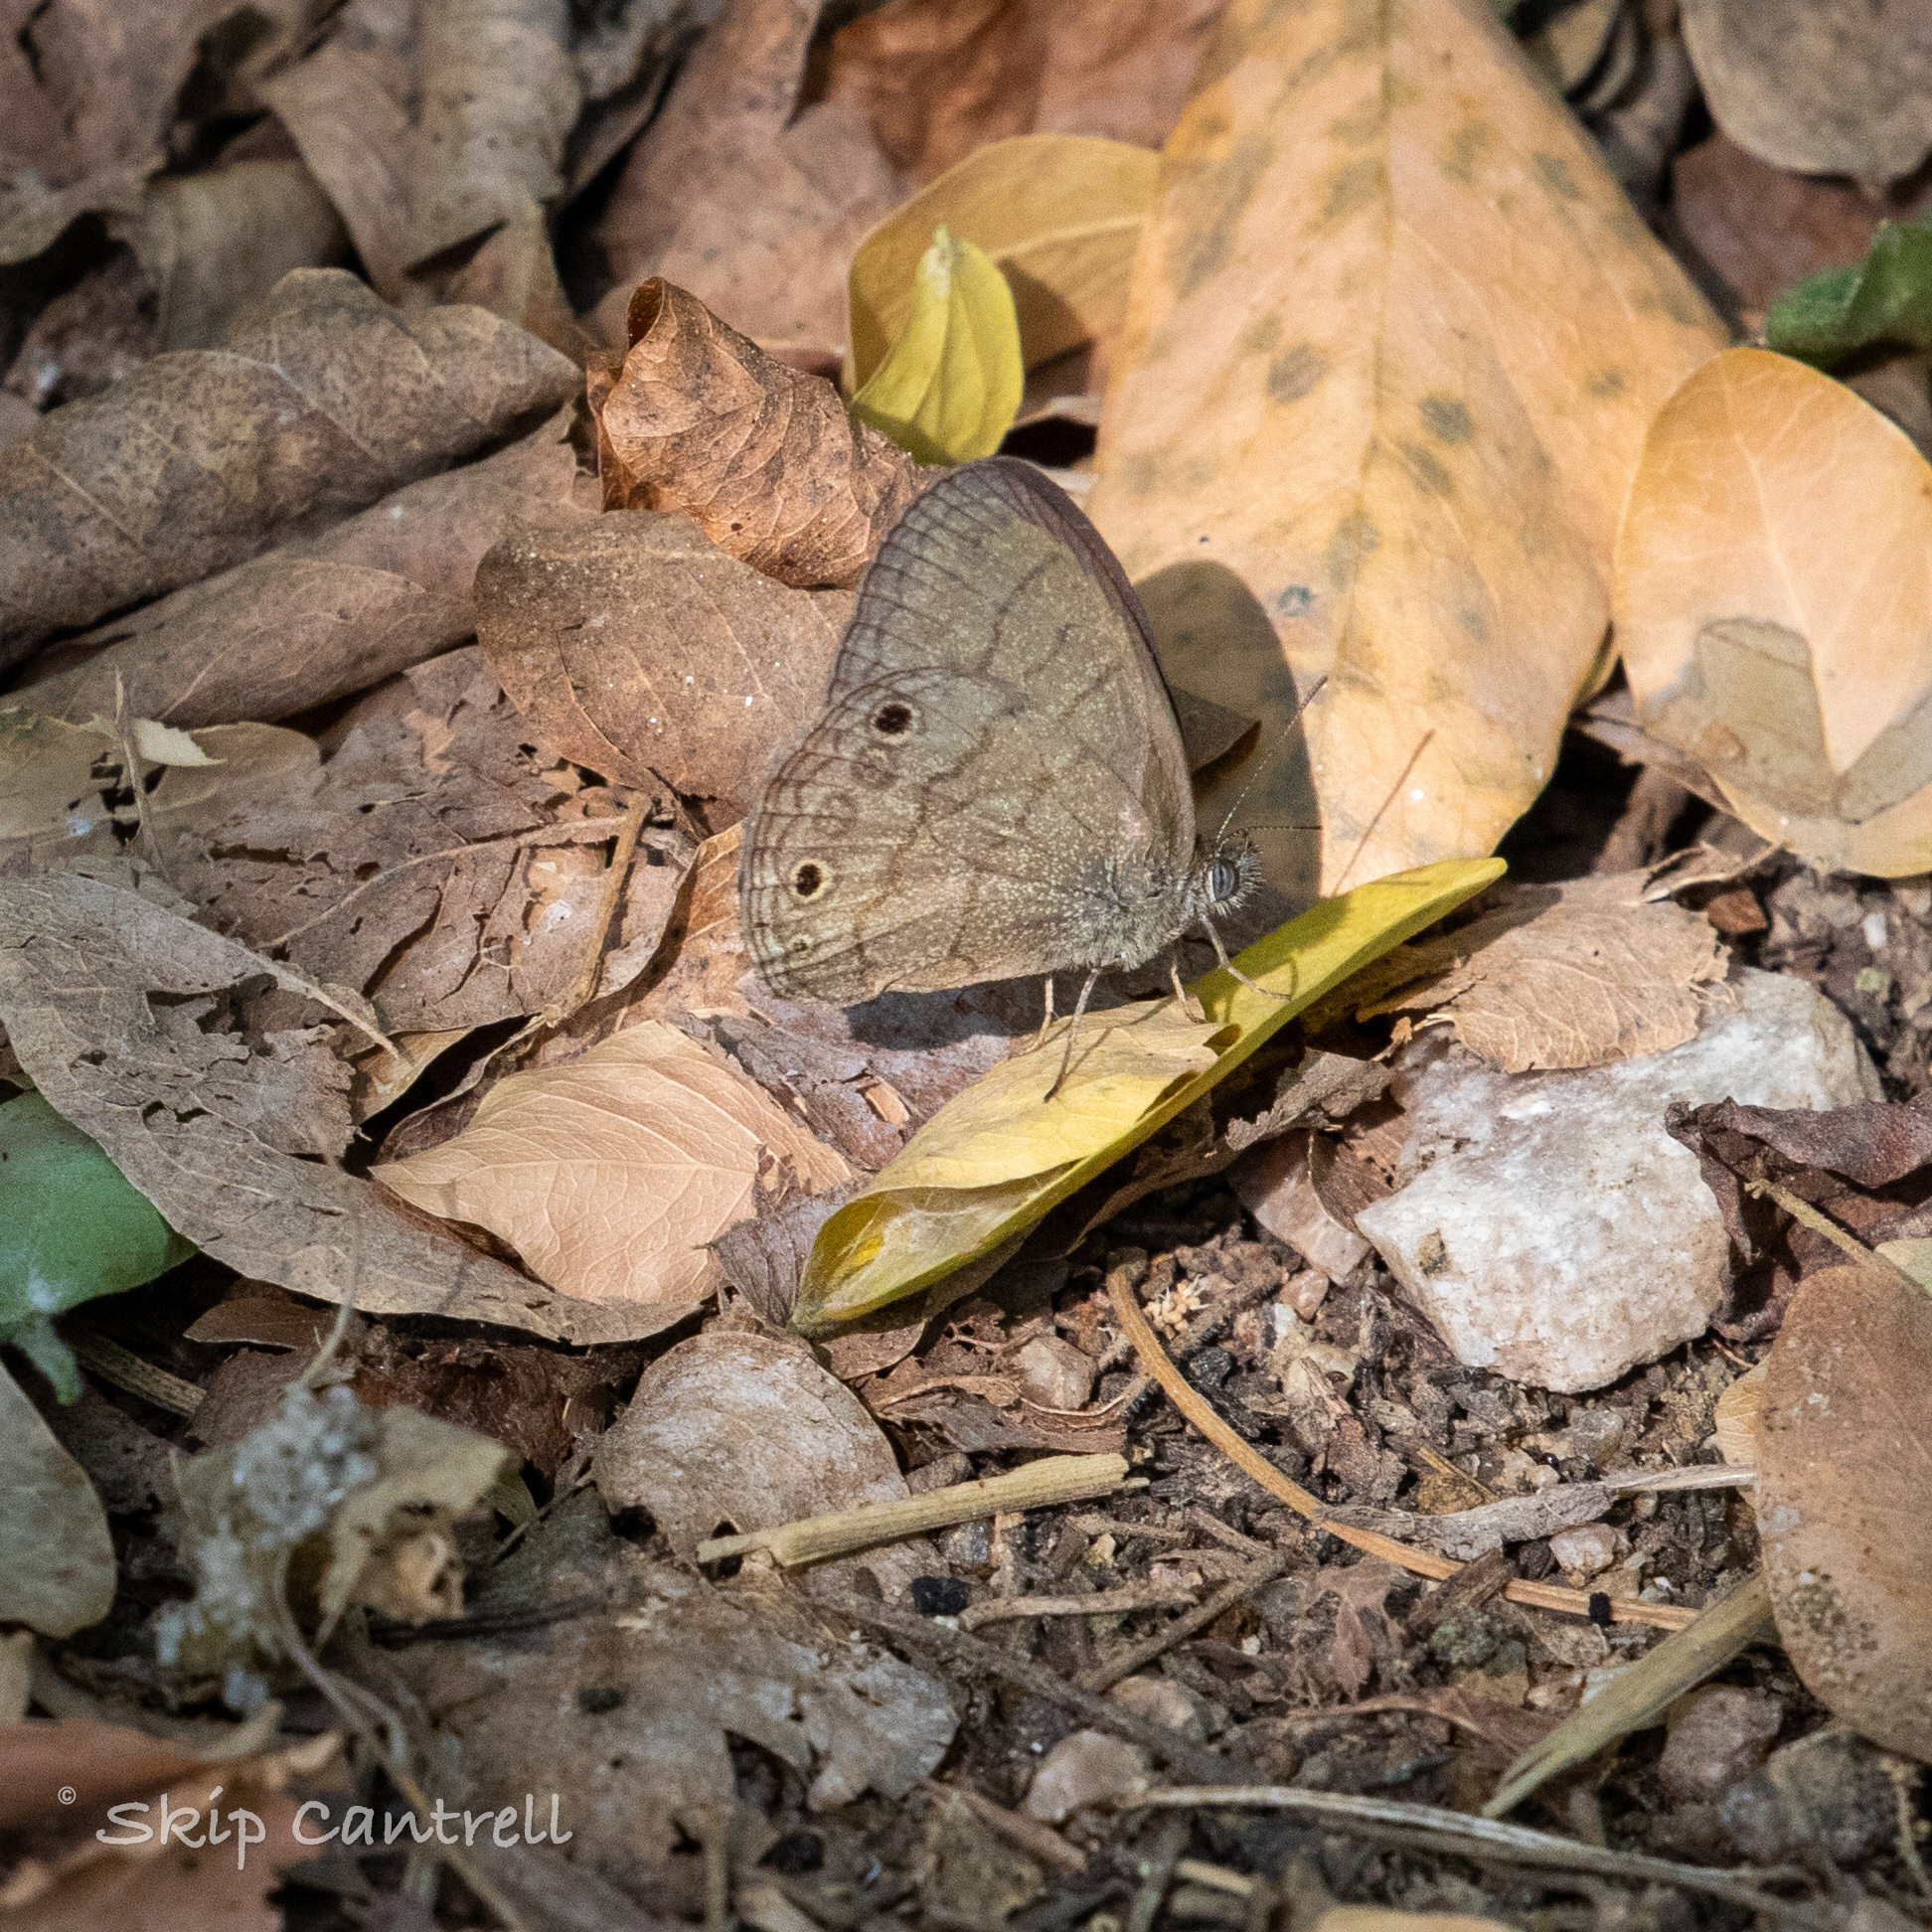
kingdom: Animalia
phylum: Arthropoda
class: Insecta
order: Lepidoptera
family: Nymphalidae
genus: Hermeuptychia
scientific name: Hermeuptychia hermybius
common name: South texas satyr
